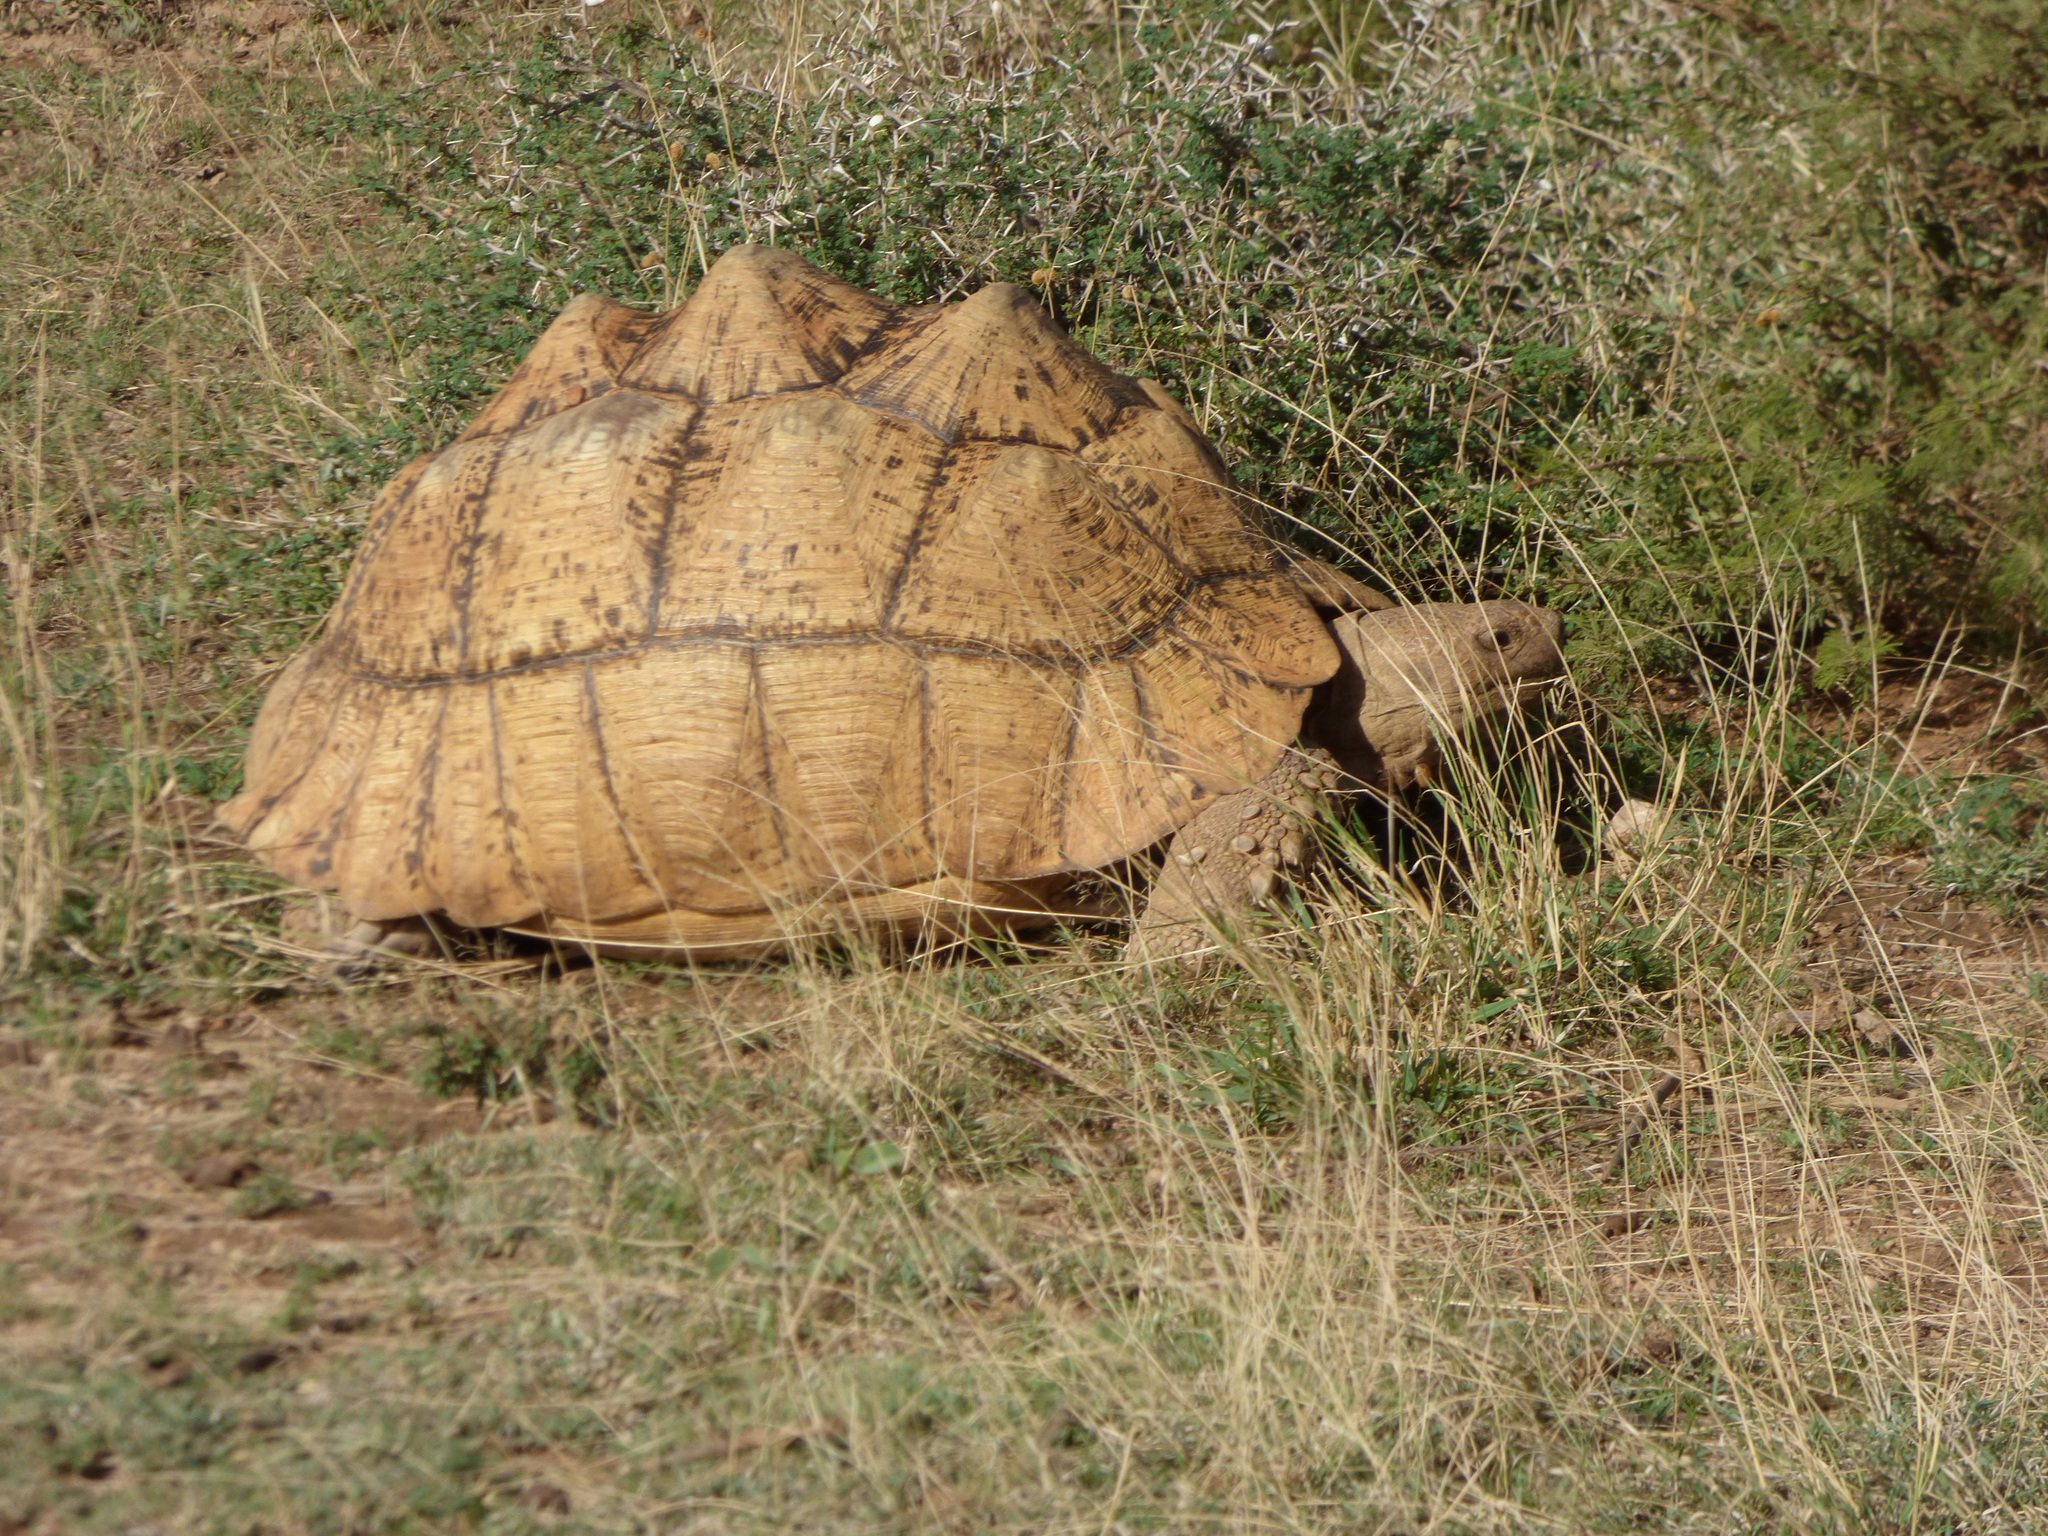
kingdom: Animalia
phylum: Chordata
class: Testudines
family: Testudinidae
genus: Stigmochelys
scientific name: Stigmochelys pardalis
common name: Leopard tortoise
